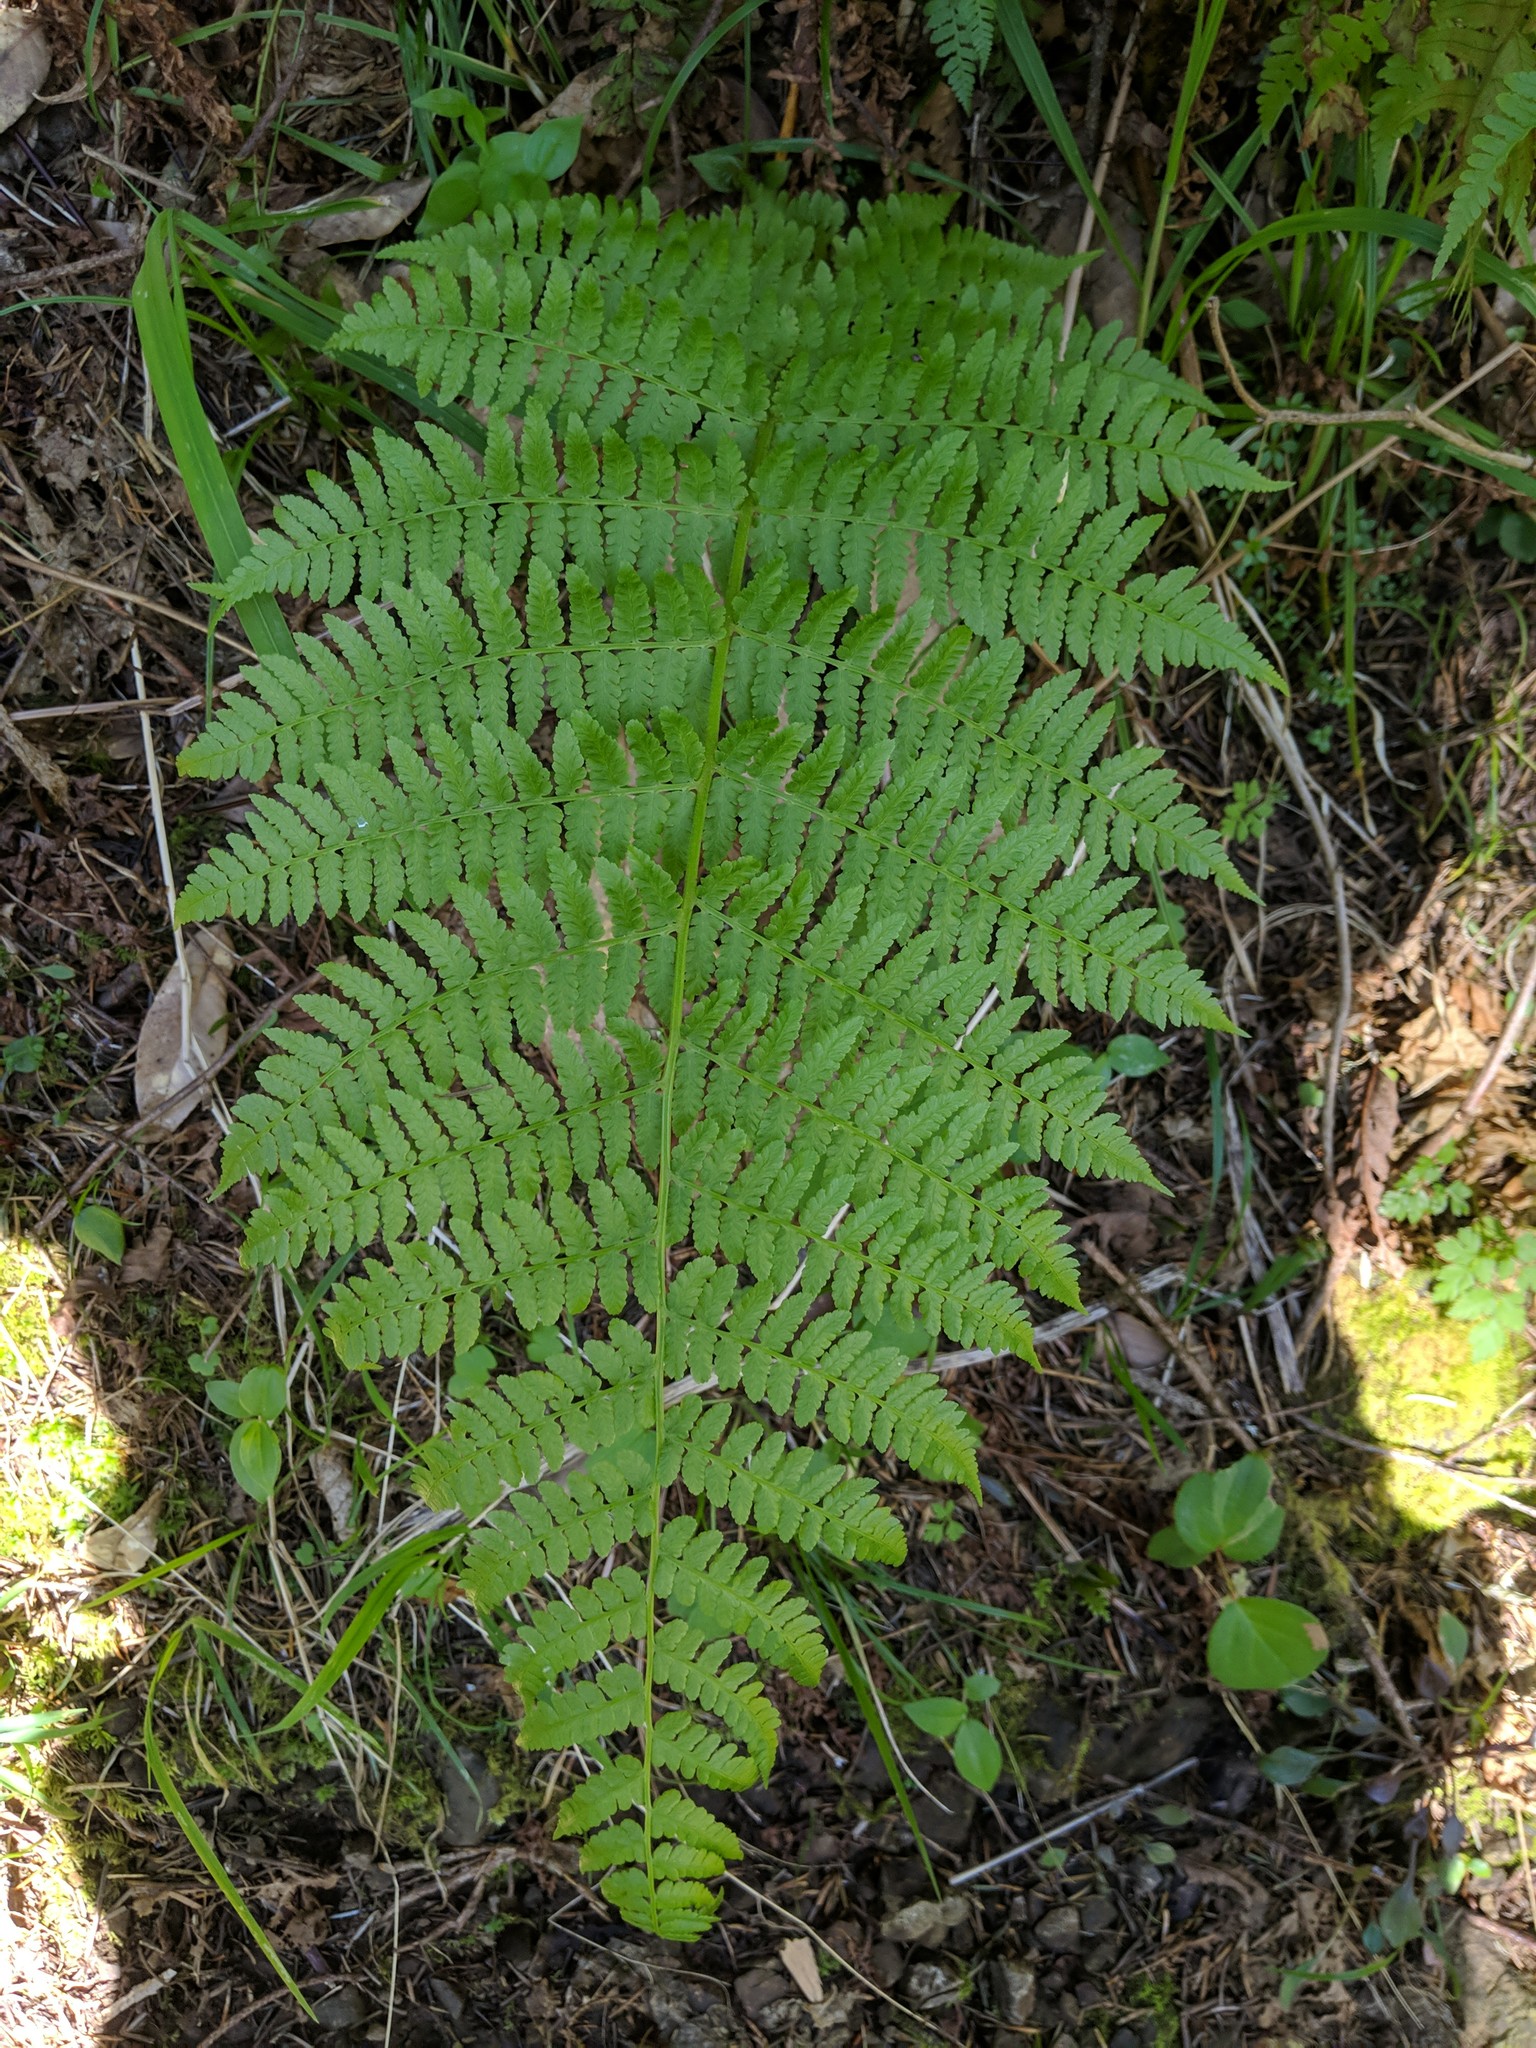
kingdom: Plantae
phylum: Tracheophyta
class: Polypodiopsida
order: Polypodiales
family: Athyriaceae
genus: Athyrium
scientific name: Athyrium cyclosorum
